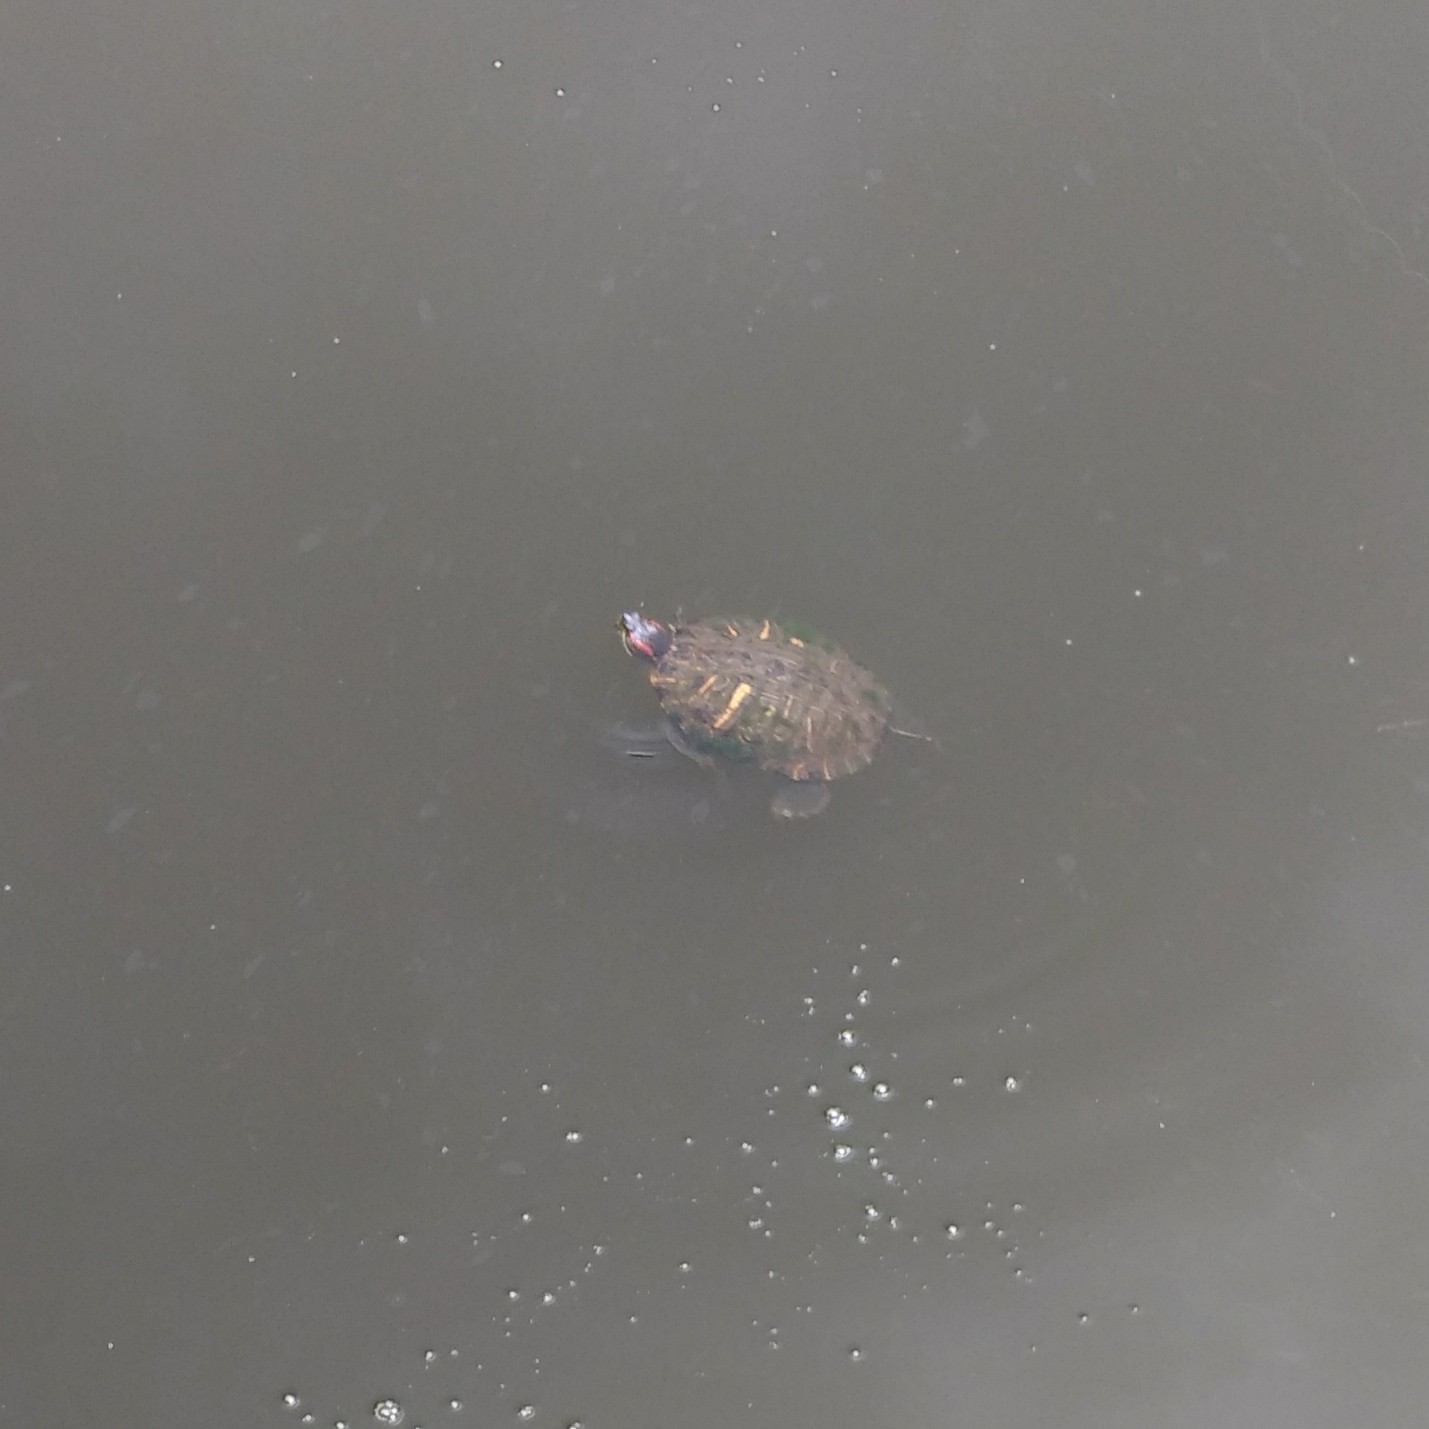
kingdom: Animalia
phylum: Chordata
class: Testudines
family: Emydidae
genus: Trachemys
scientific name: Trachemys scripta
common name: Slider
